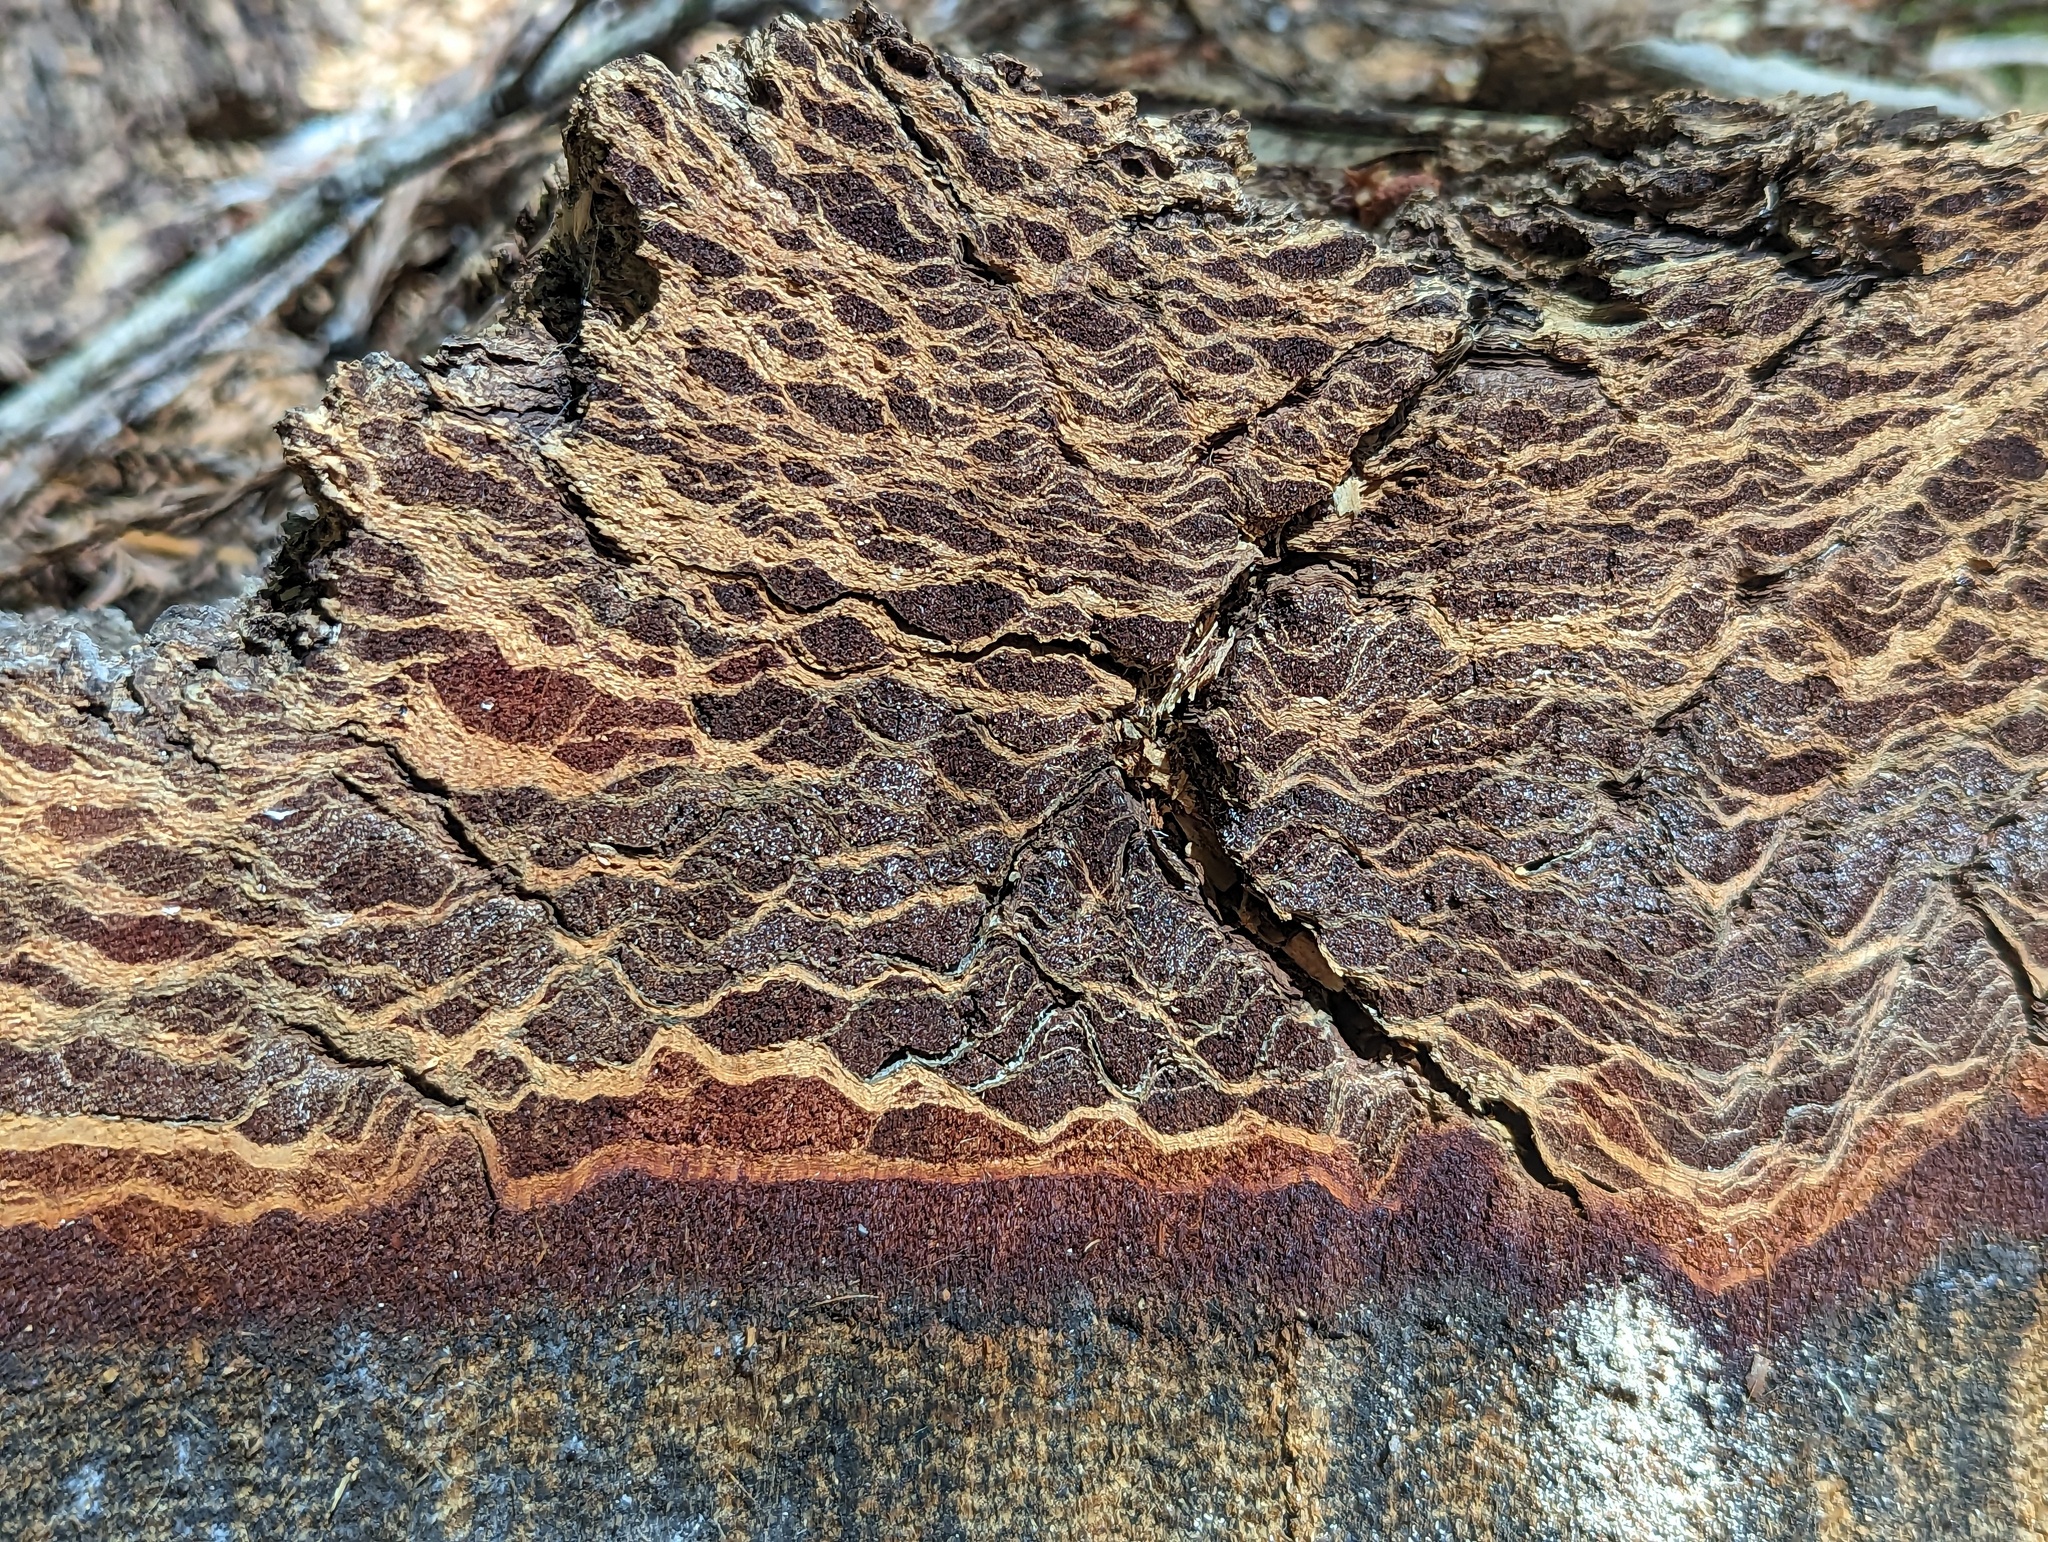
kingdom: Plantae
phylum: Tracheophyta
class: Pinopsida
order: Pinales
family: Cupressaceae
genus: Sequoia
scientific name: Sequoia sempervirens
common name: Coast redwood
